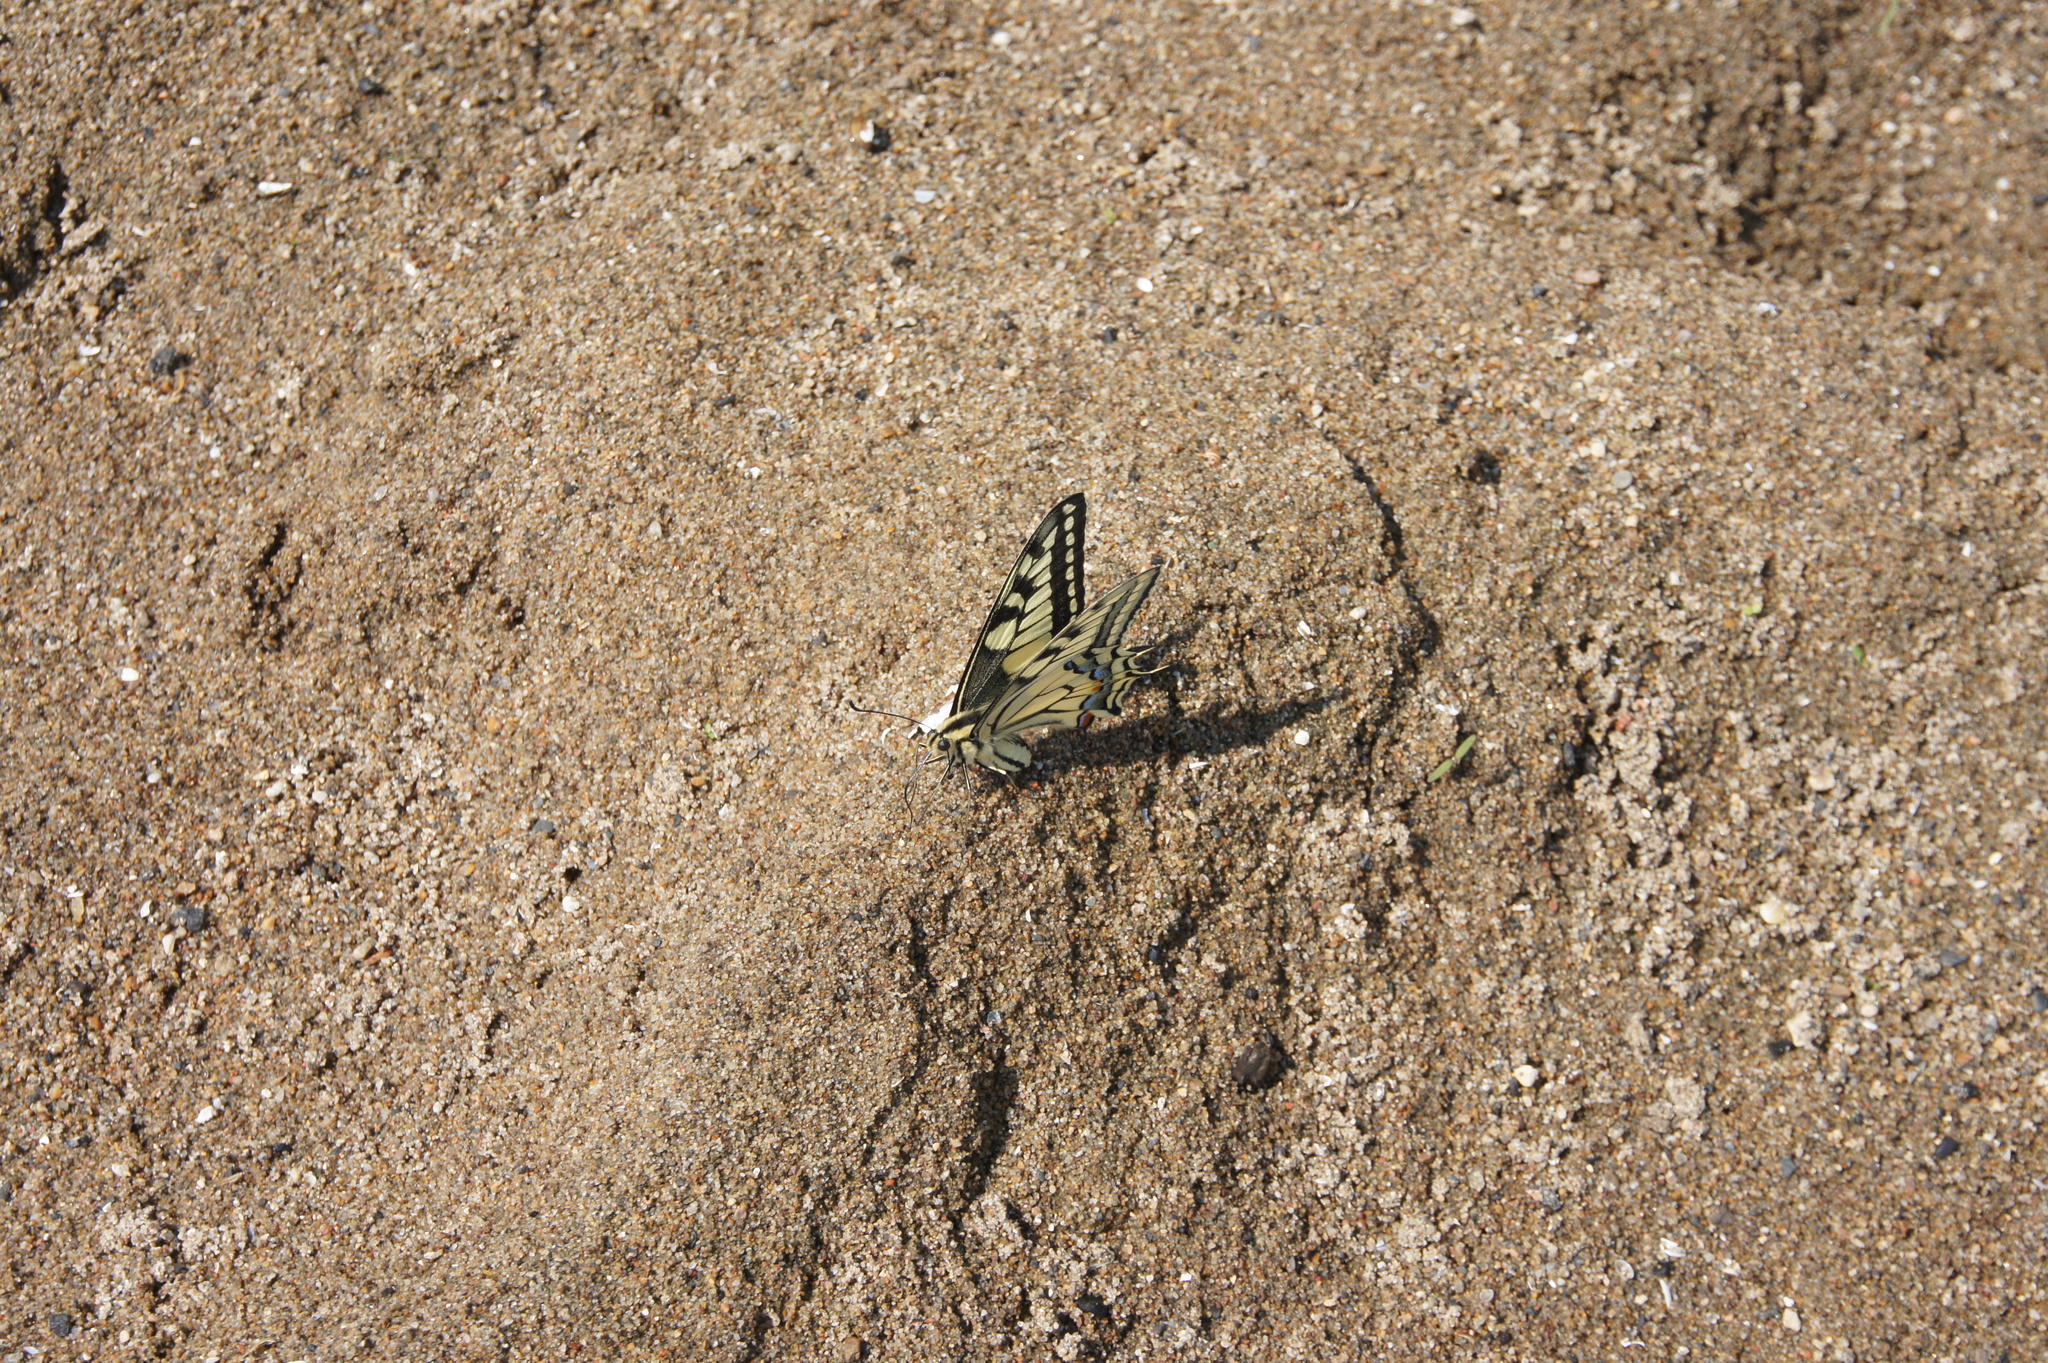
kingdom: Animalia
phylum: Arthropoda
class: Insecta
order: Lepidoptera
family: Papilionidae
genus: Papilio
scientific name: Papilio machaon
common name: Swallowtail
